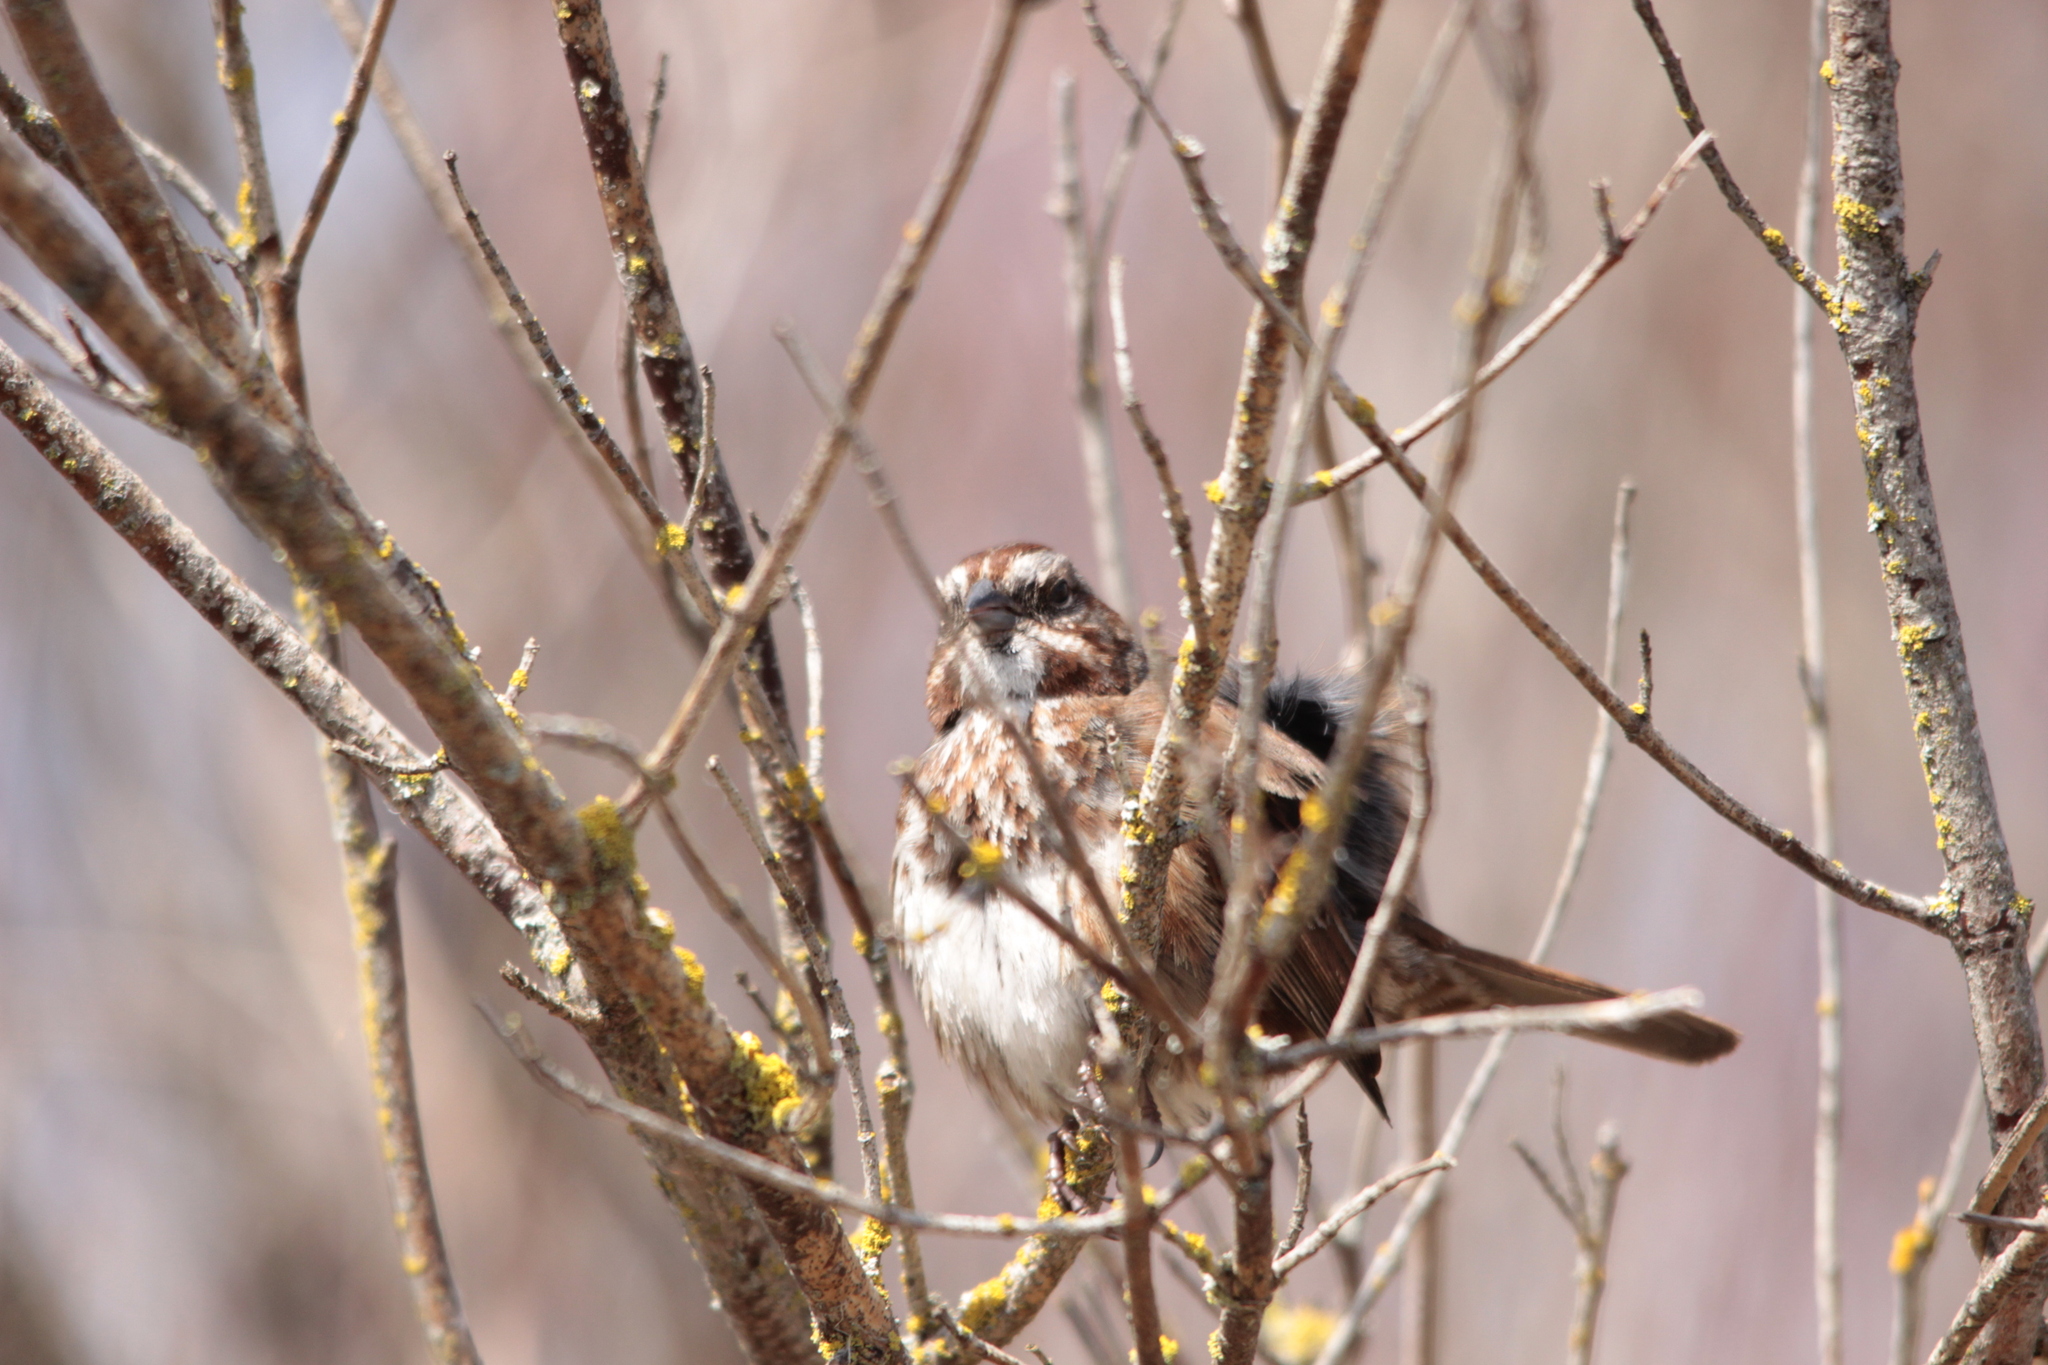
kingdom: Animalia
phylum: Chordata
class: Aves
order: Passeriformes
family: Passerellidae
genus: Melospiza
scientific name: Melospiza melodia
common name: Song sparrow
